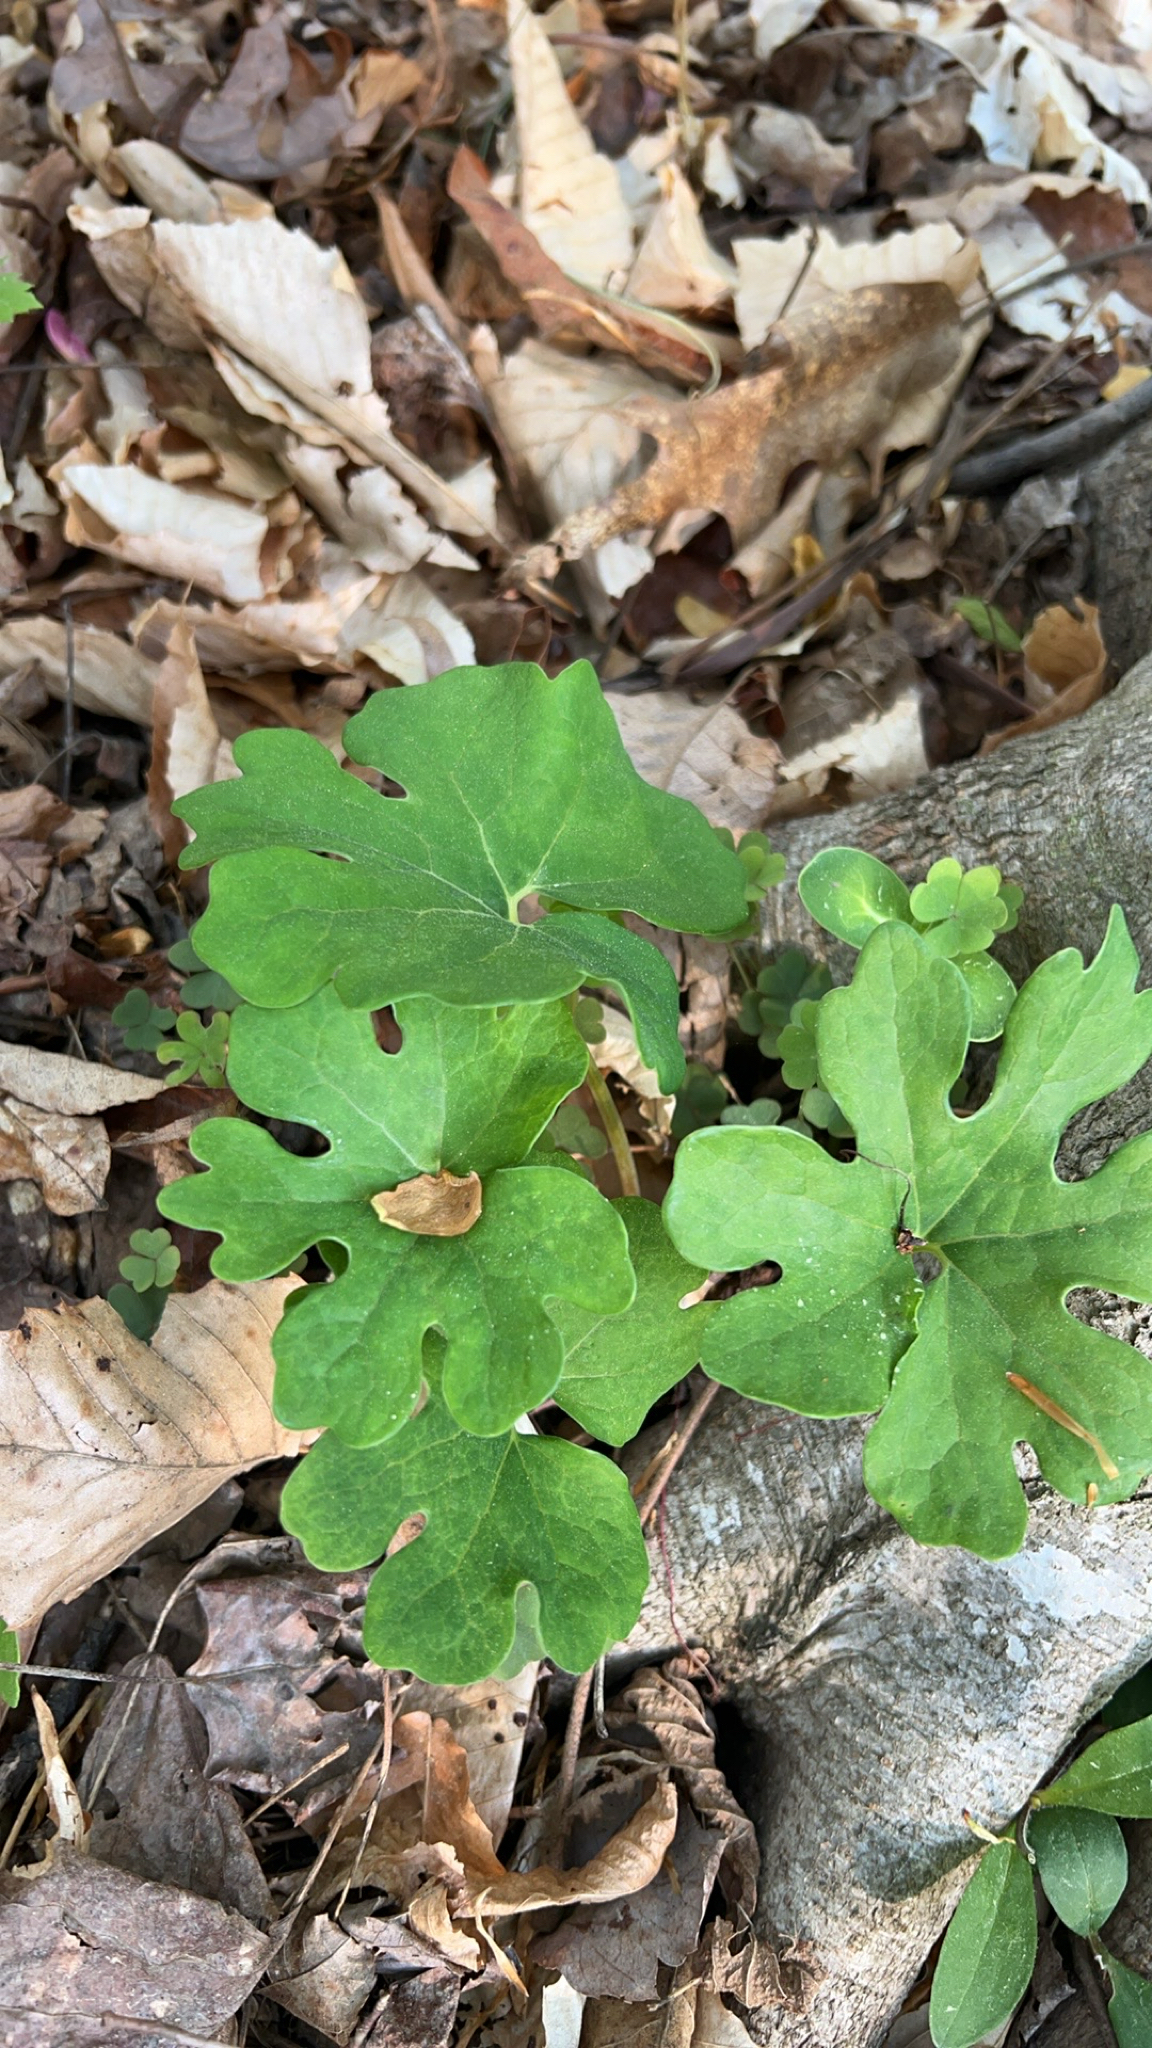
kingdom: Plantae
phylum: Tracheophyta
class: Magnoliopsida
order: Ranunculales
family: Papaveraceae
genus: Sanguinaria
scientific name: Sanguinaria canadensis
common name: Bloodroot
